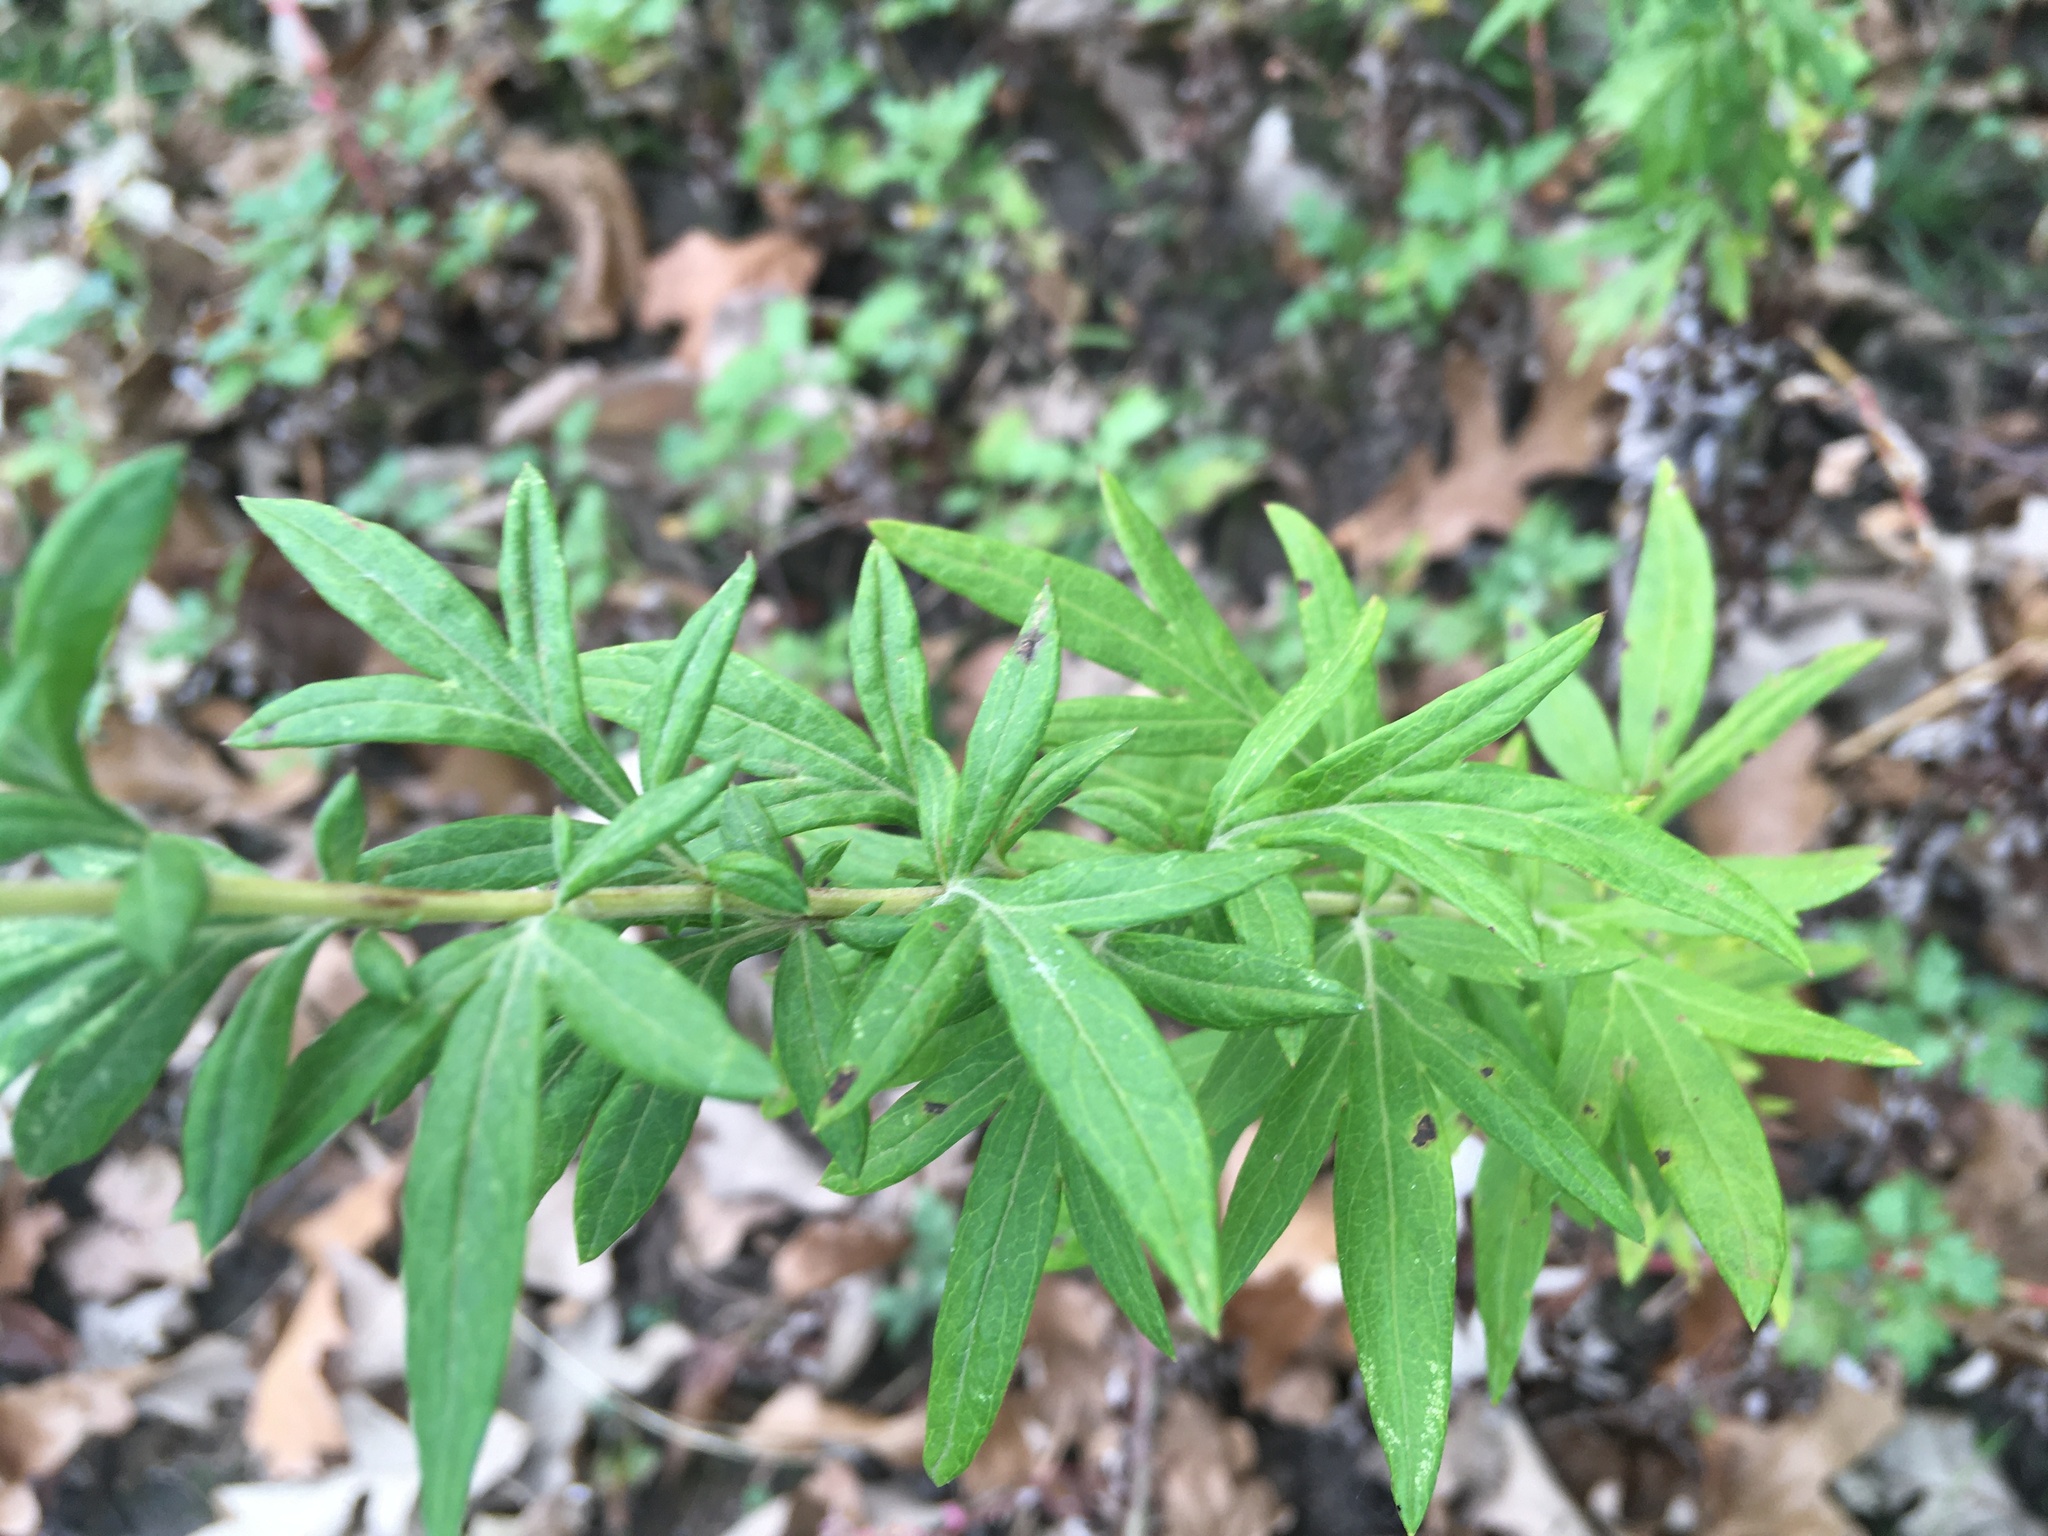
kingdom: Plantae
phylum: Tracheophyta
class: Magnoliopsida
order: Asterales
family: Asteraceae
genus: Artemisia
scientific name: Artemisia vulgaris
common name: Mugwort
